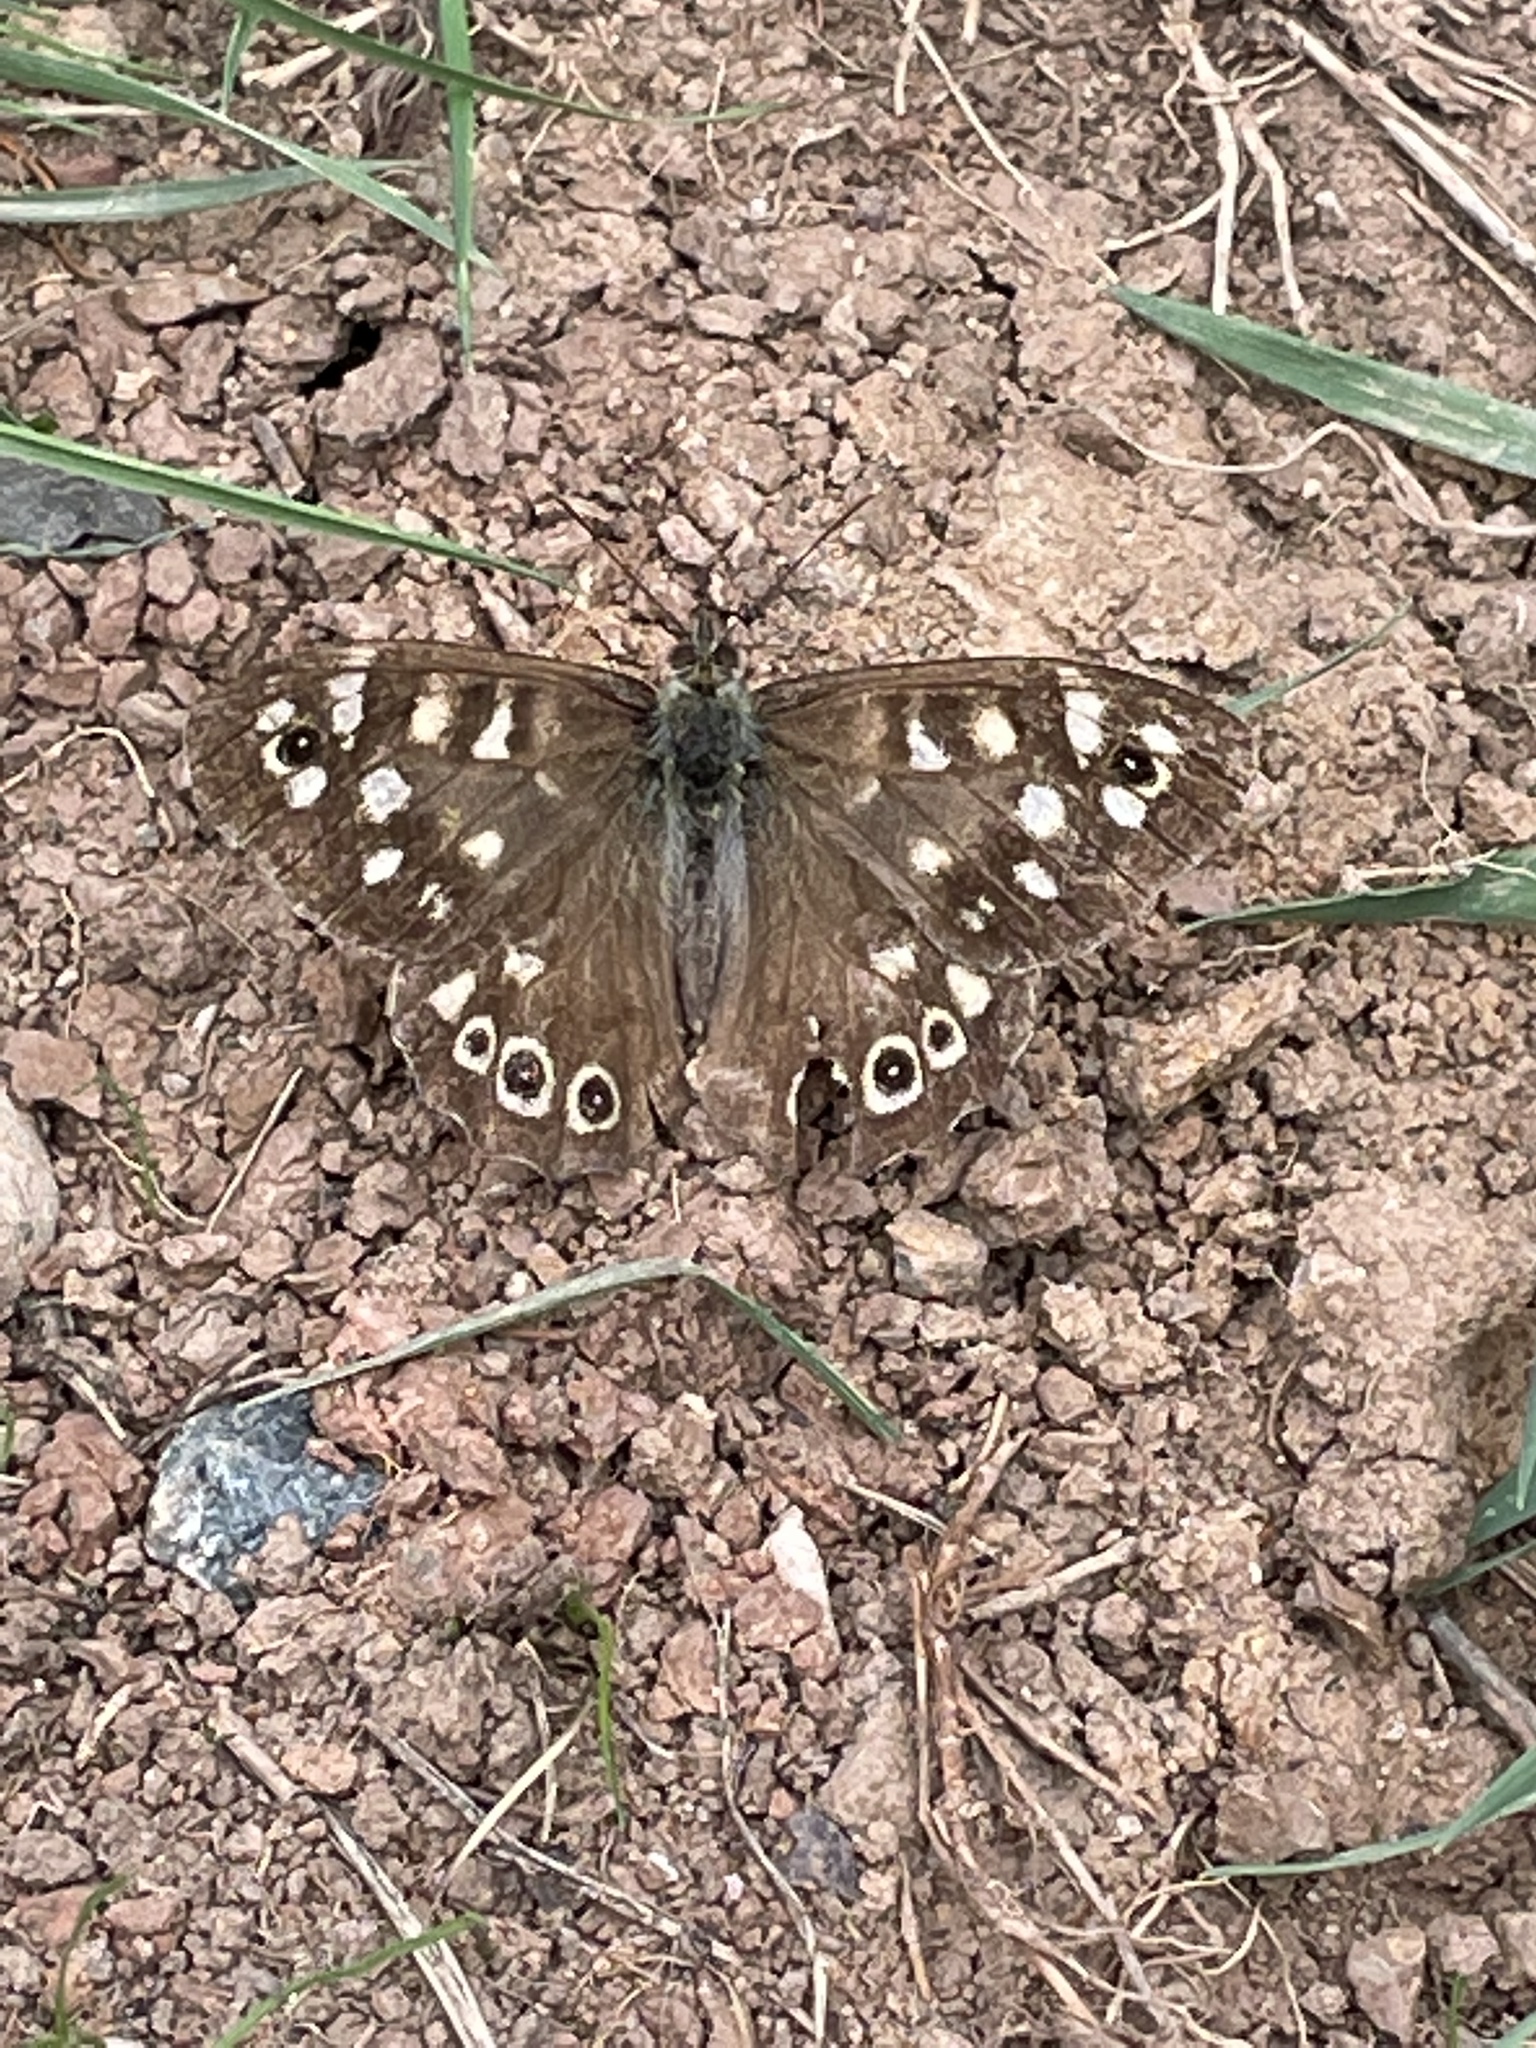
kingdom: Animalia
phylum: Arthropoda
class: Insecta
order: Lepidoptera
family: Nymphalidae
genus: Pararge
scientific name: Pararge aegeria
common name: Speckled wood
